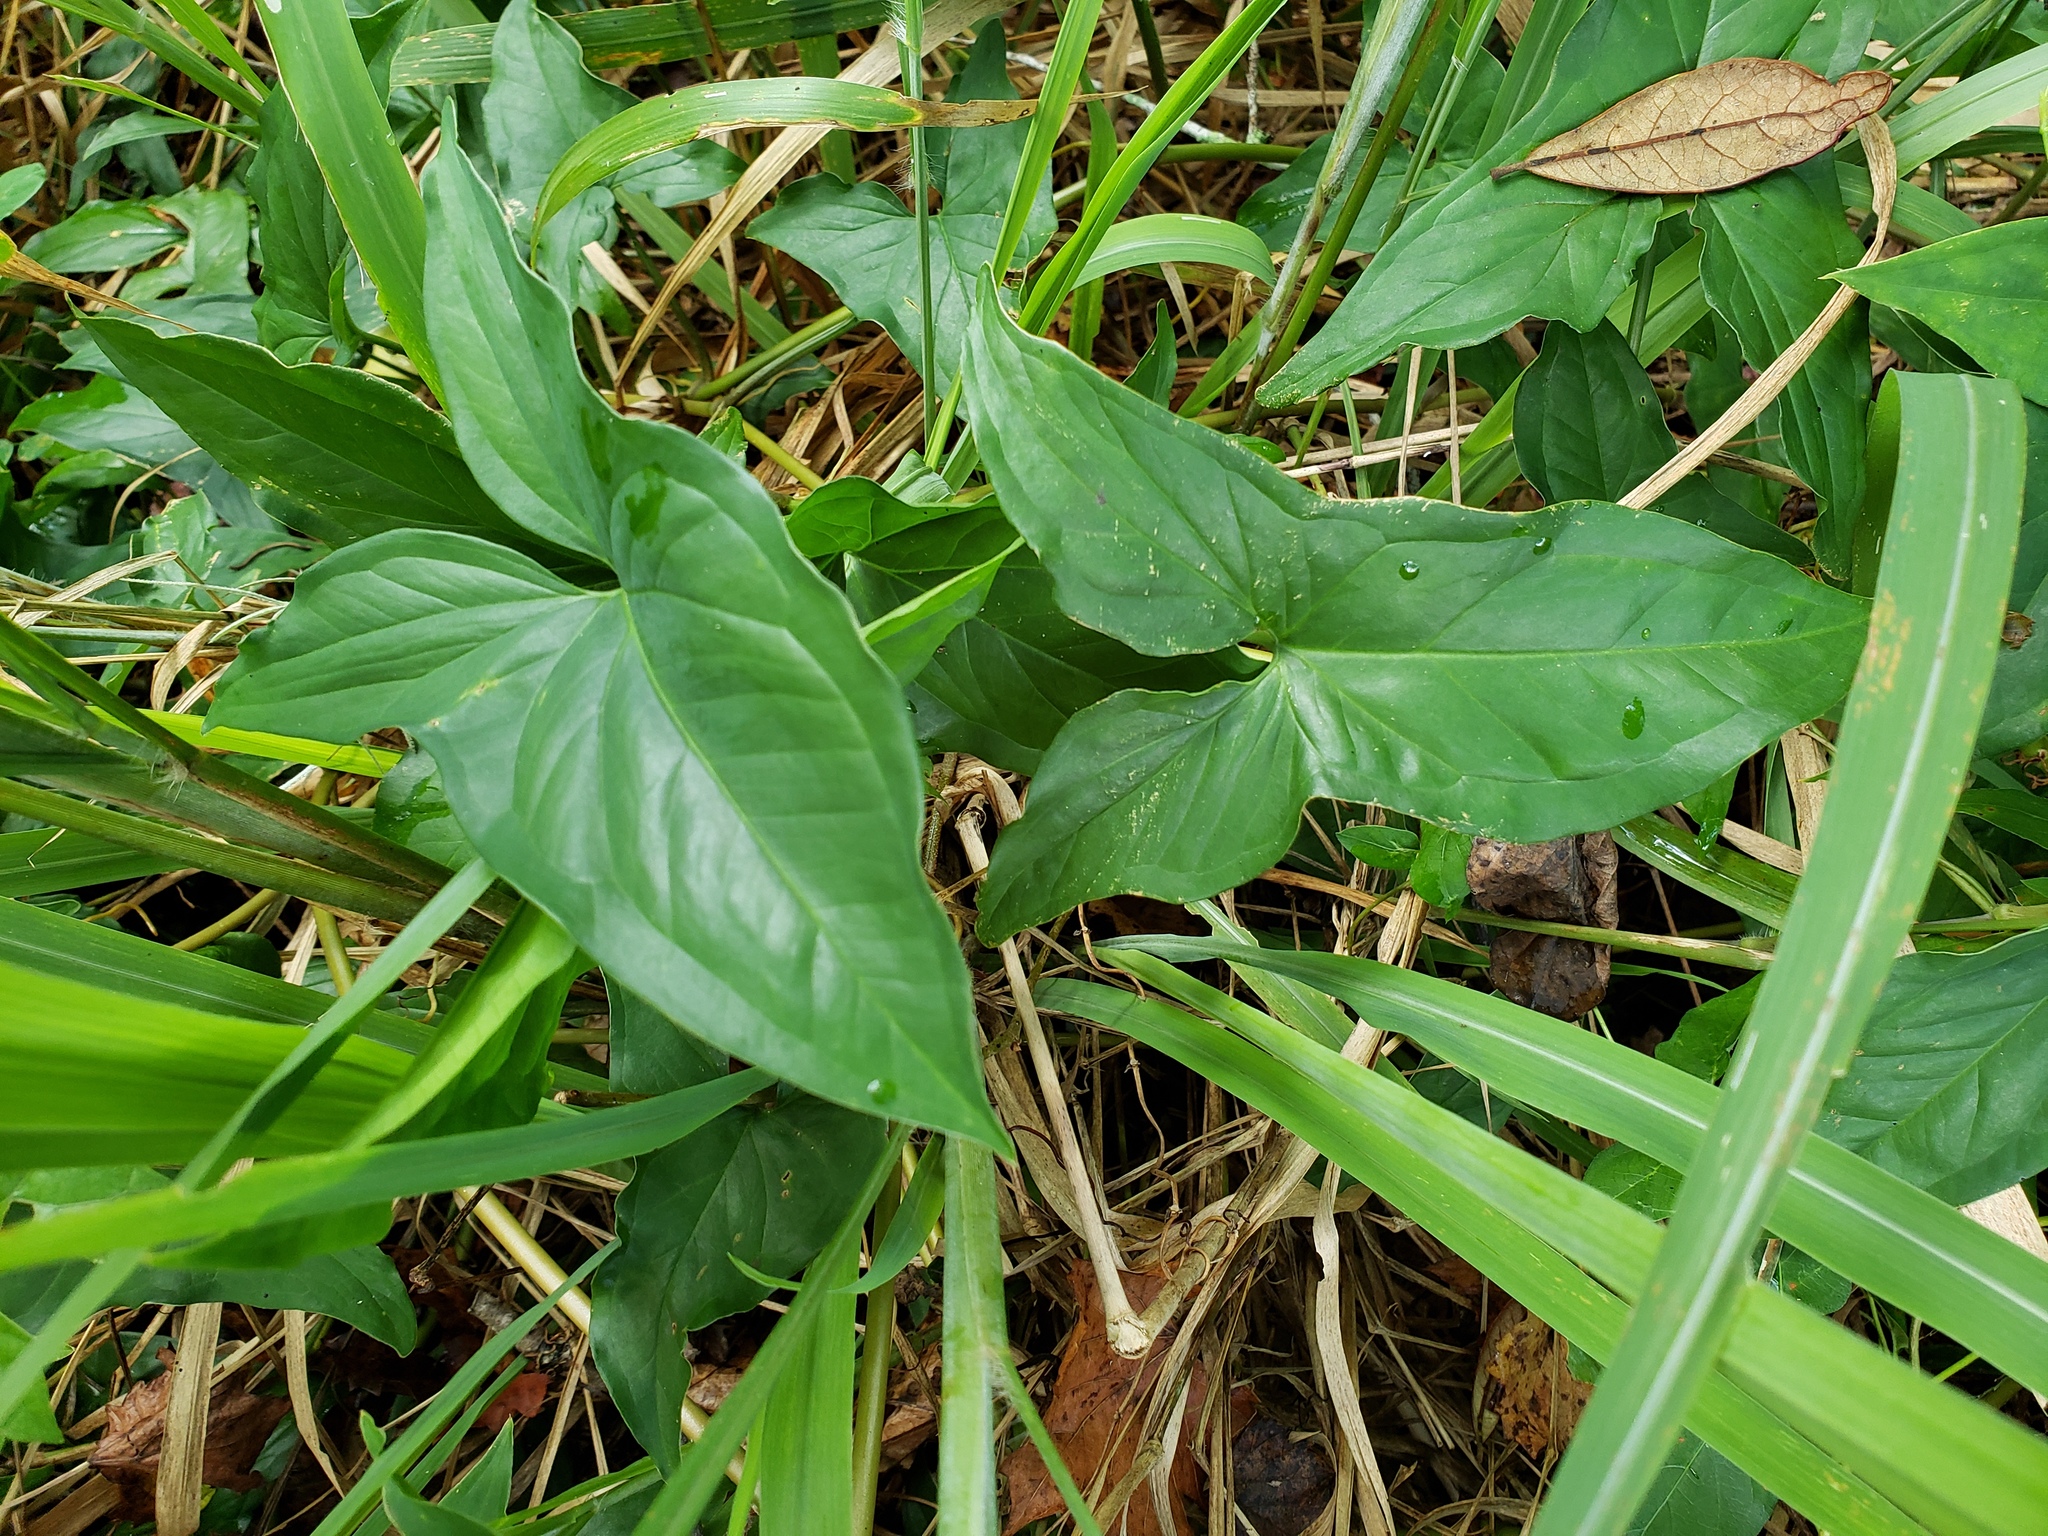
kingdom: Plantae
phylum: Tracheophyta
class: Liliopsida
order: Alismatales
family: Araceae
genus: Syngonium
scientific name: Syngonium podophyllum
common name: American evergreen
